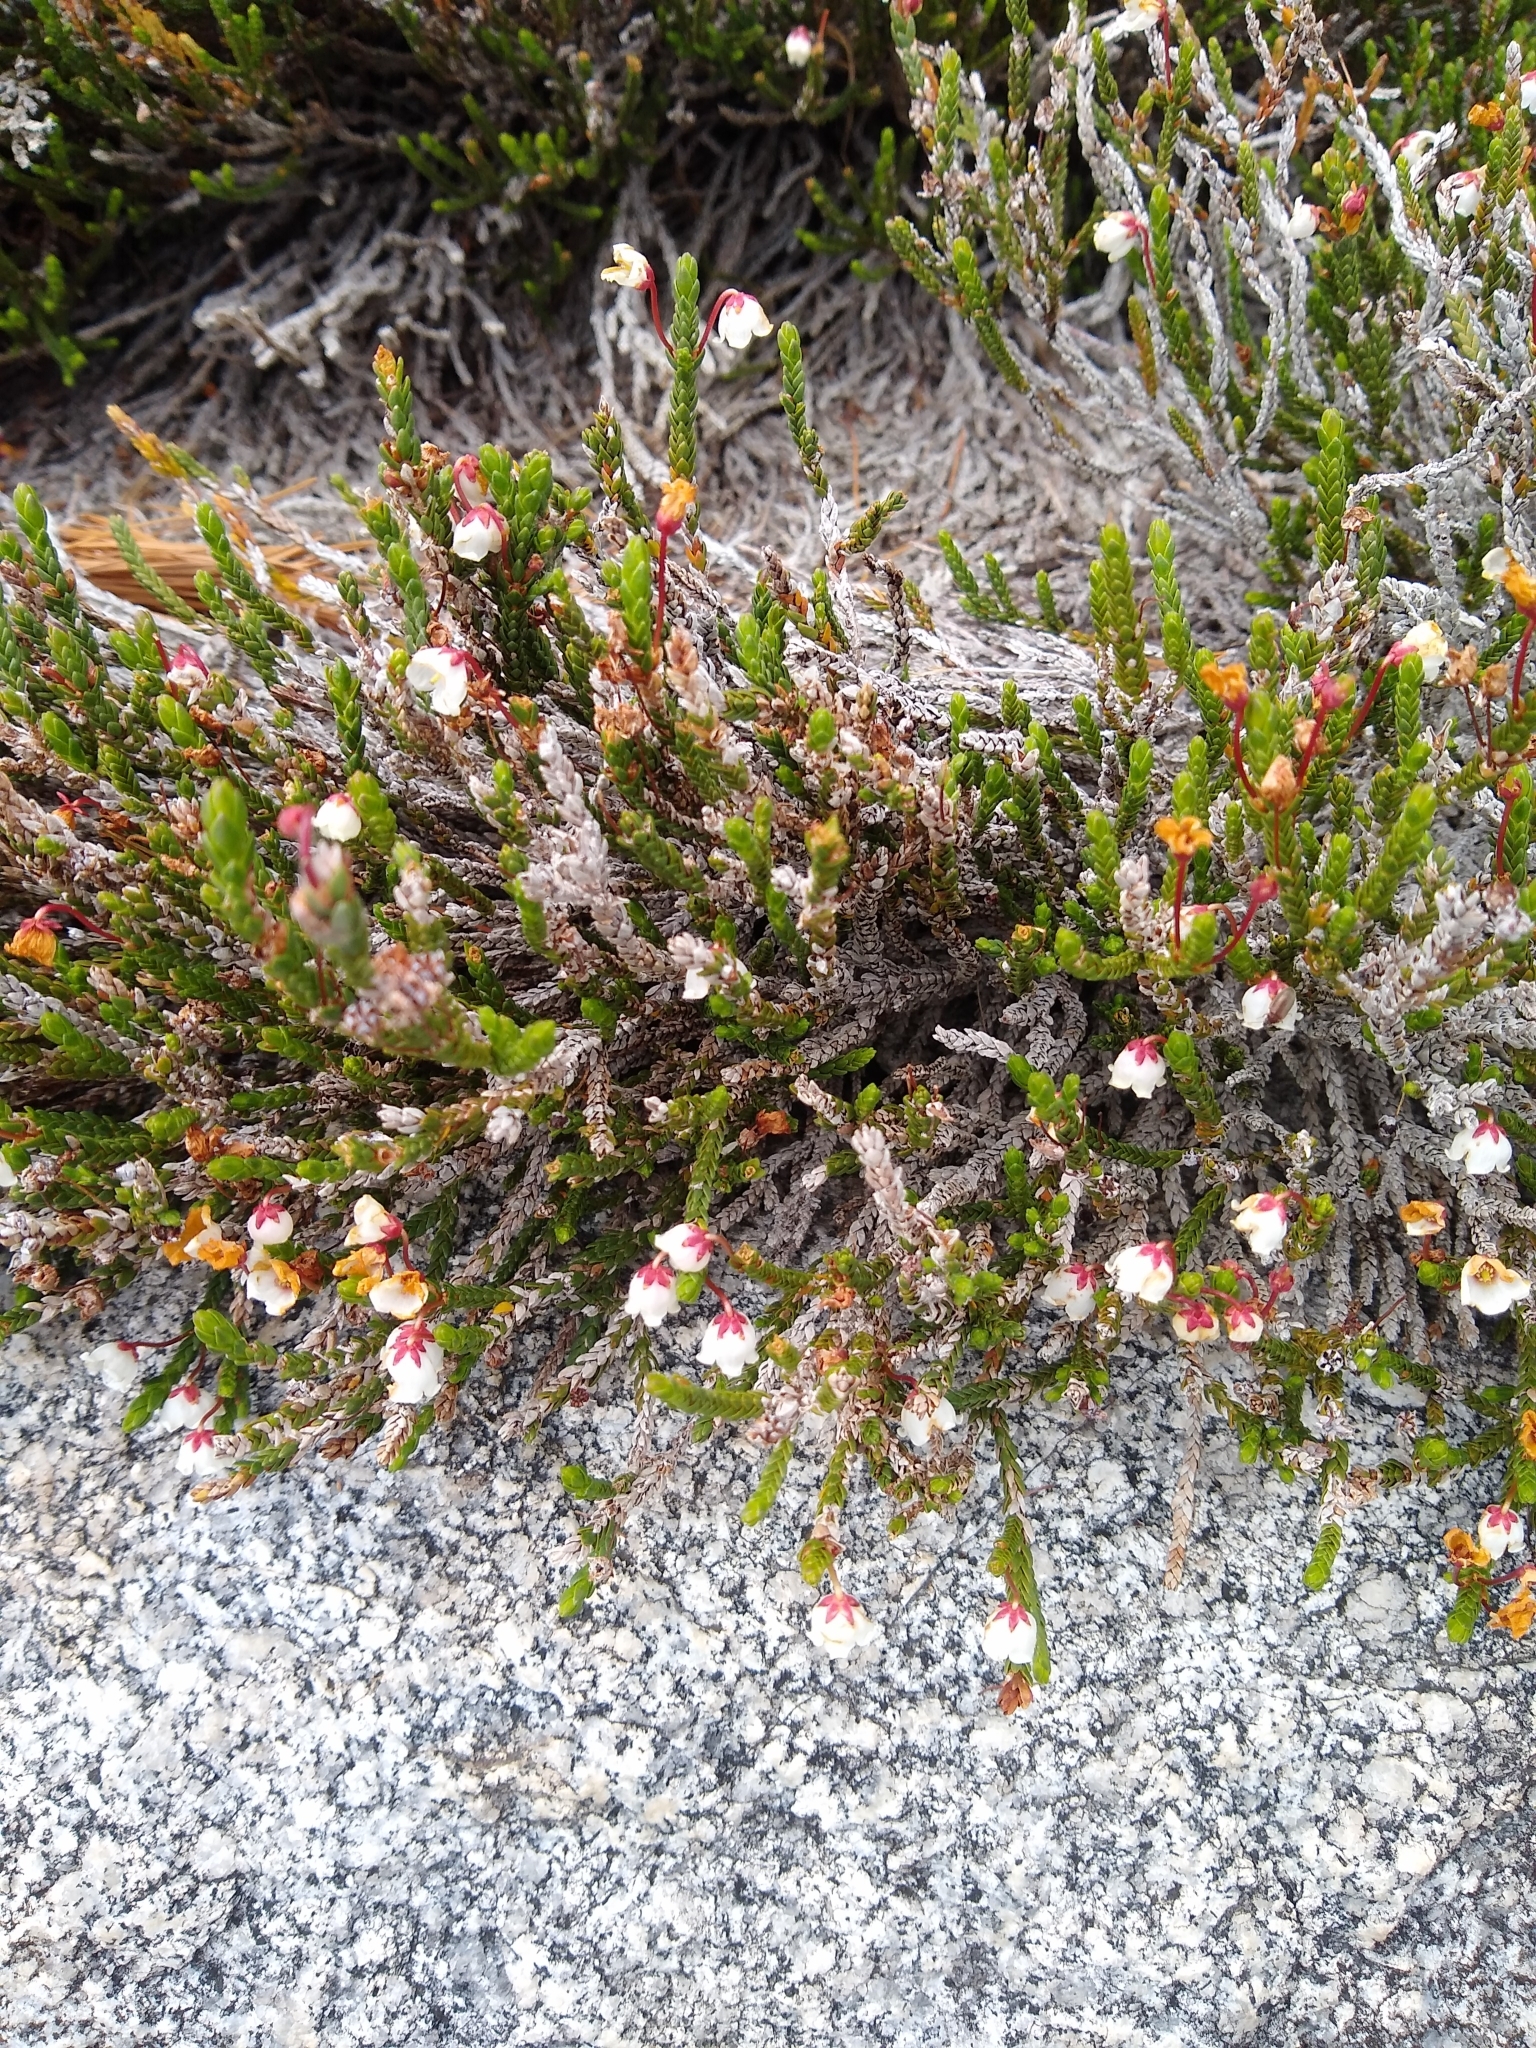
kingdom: Plantae
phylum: Tracheophyta
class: Magnoliopsida
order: Ericales
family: Ericaceae
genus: Cassiope
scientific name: Cassiope mertensiana
